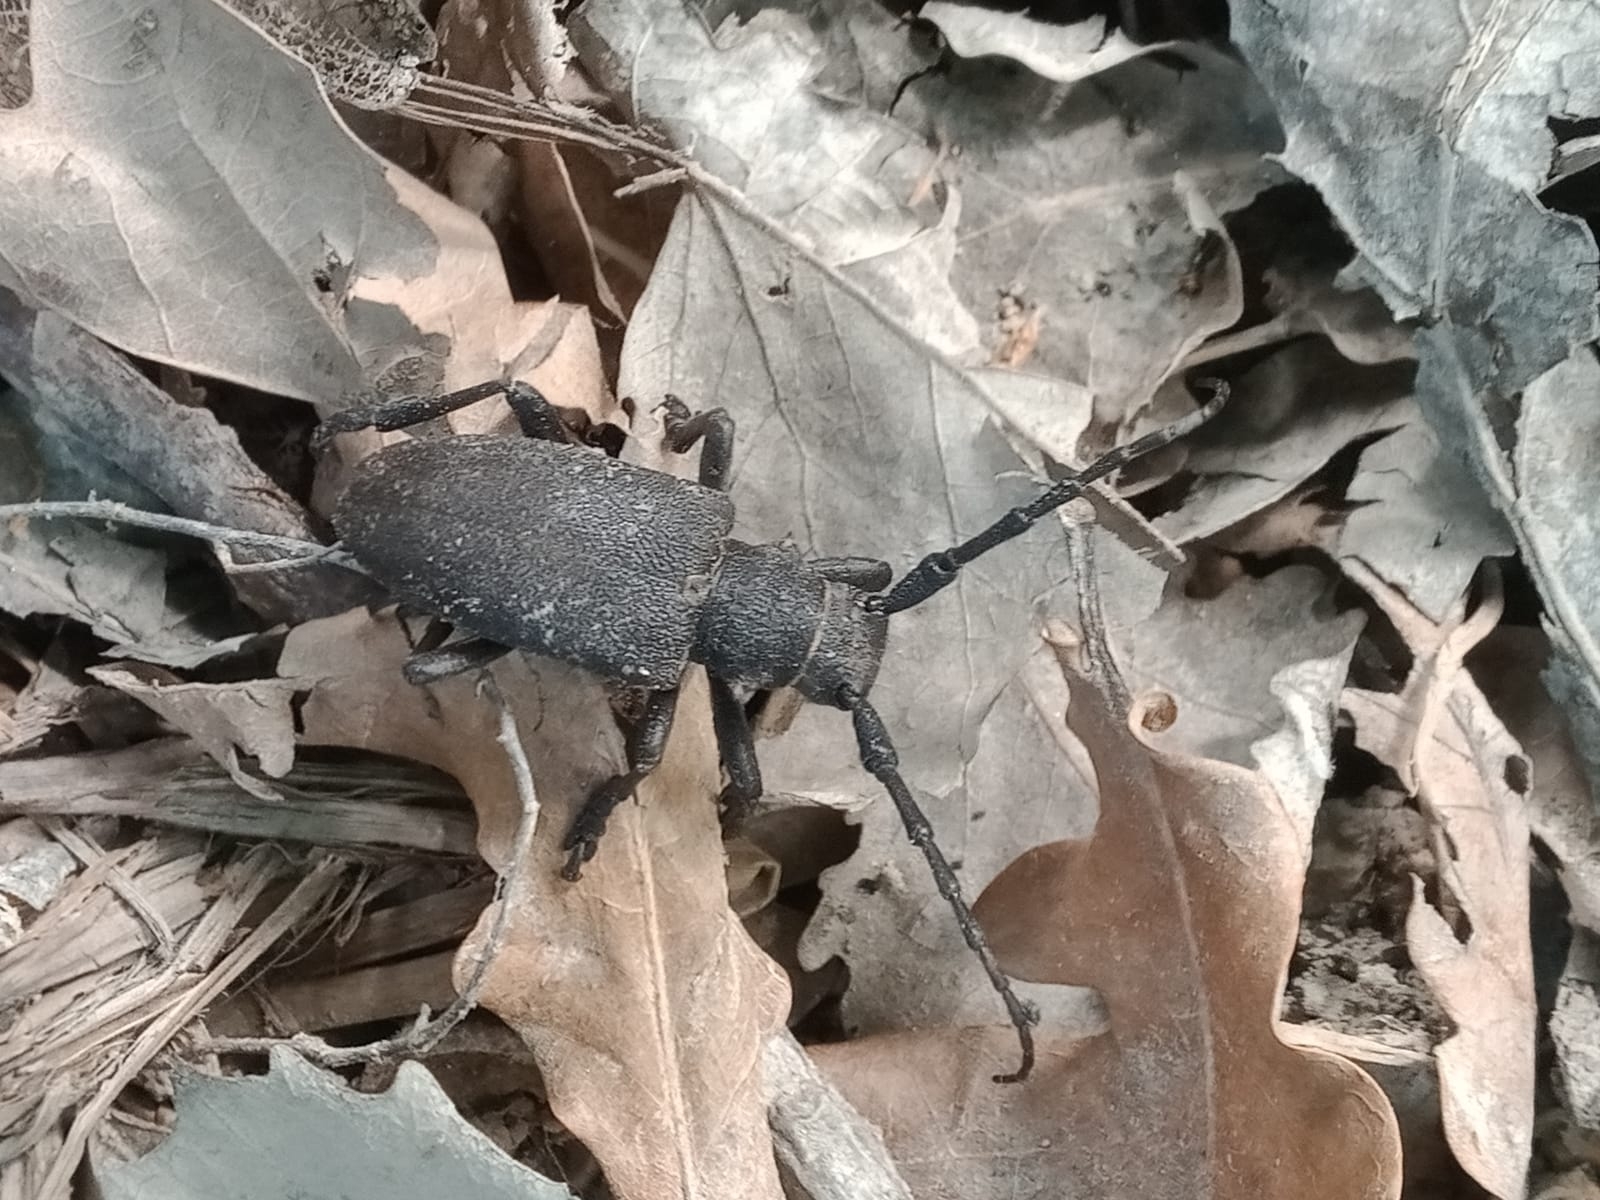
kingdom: Animalia
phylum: Arthropoda
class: Insecta
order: Coleoptera
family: Cerambycidae
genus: Lamia
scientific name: Lamia textor
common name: Weaver beetle
